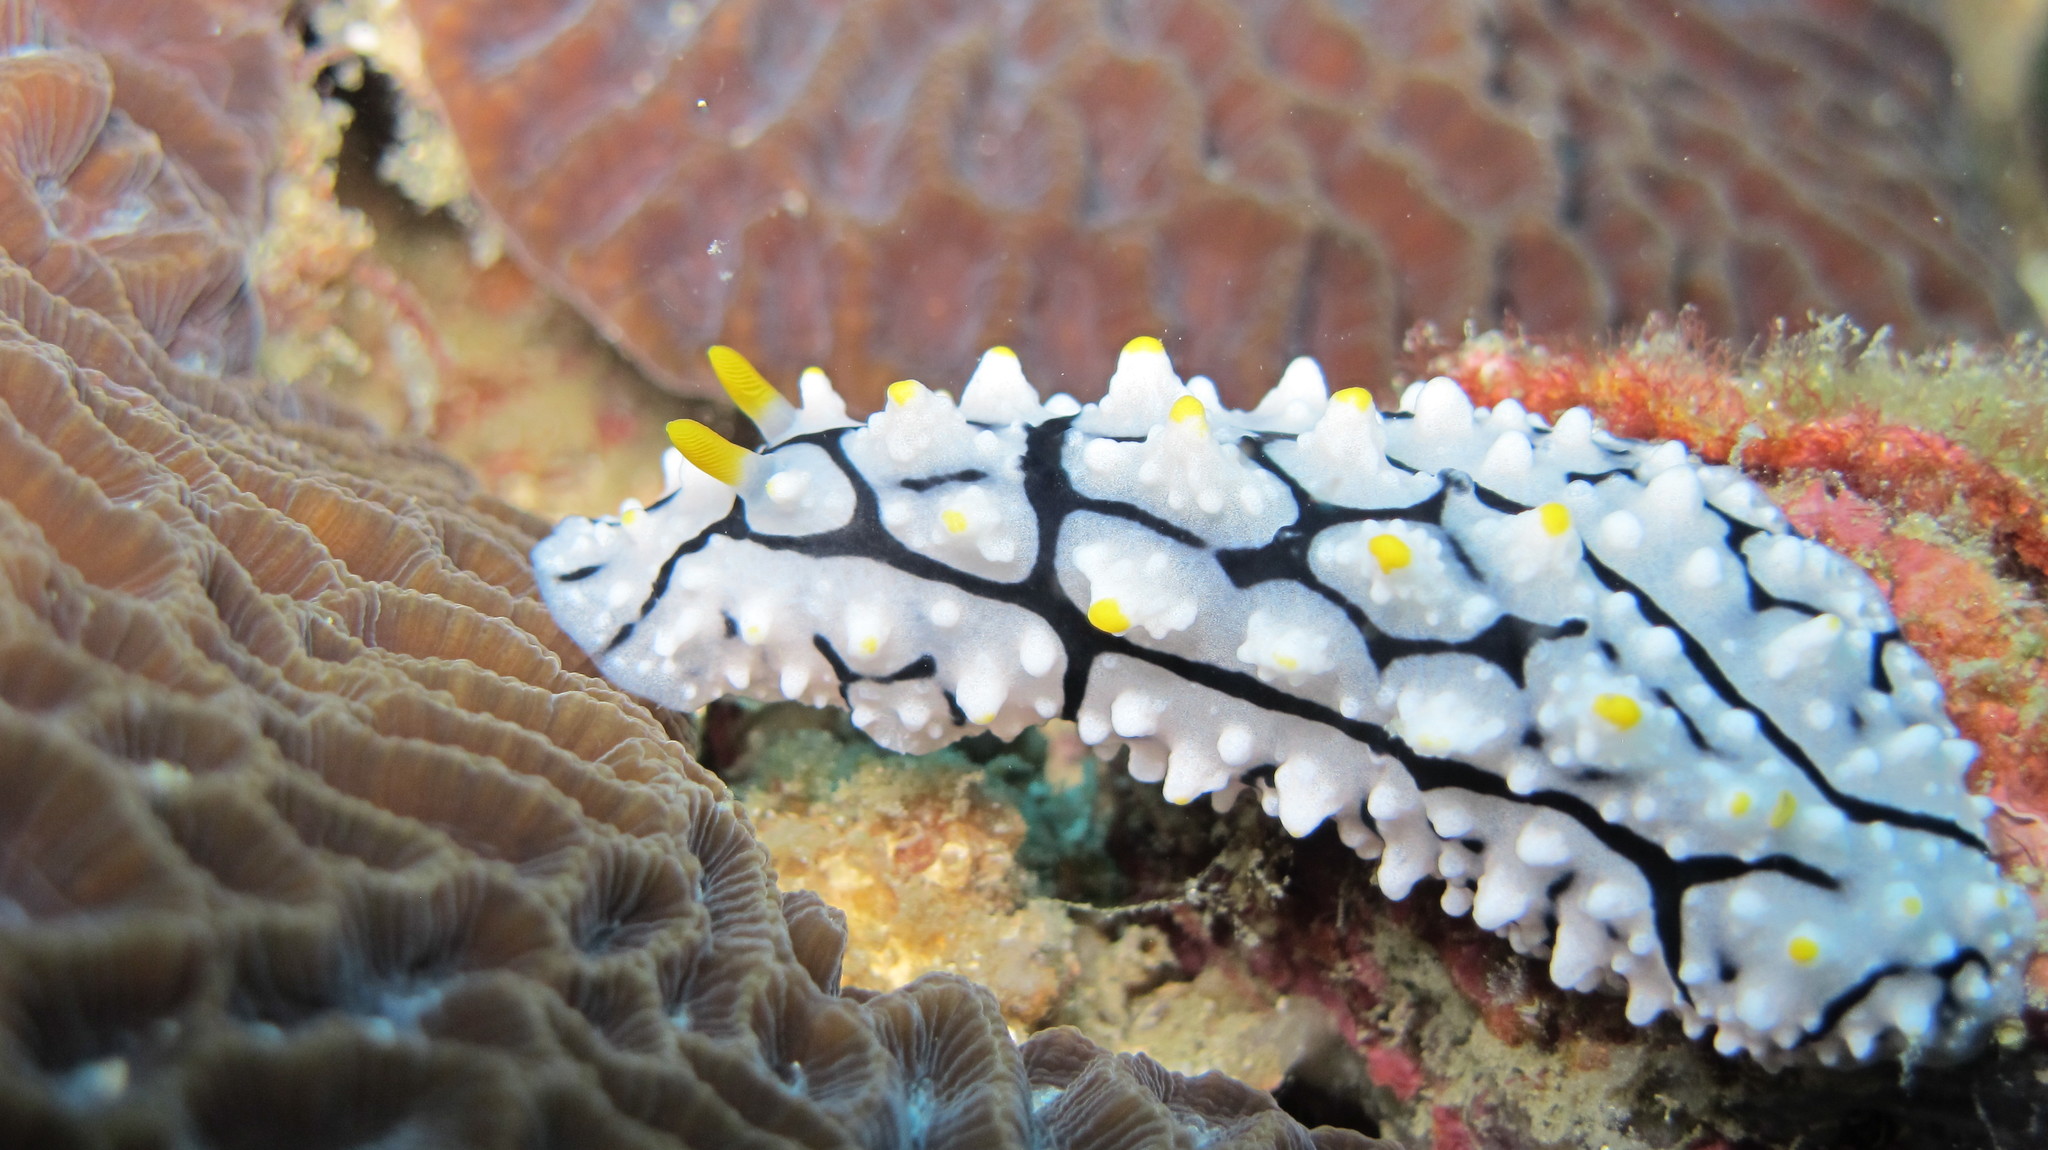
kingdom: Animalia
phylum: Mollusca
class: Gastropoda
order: Nudibranchia
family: Phyllidiidae
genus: Phyllidia
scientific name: Phyllidia elegans
